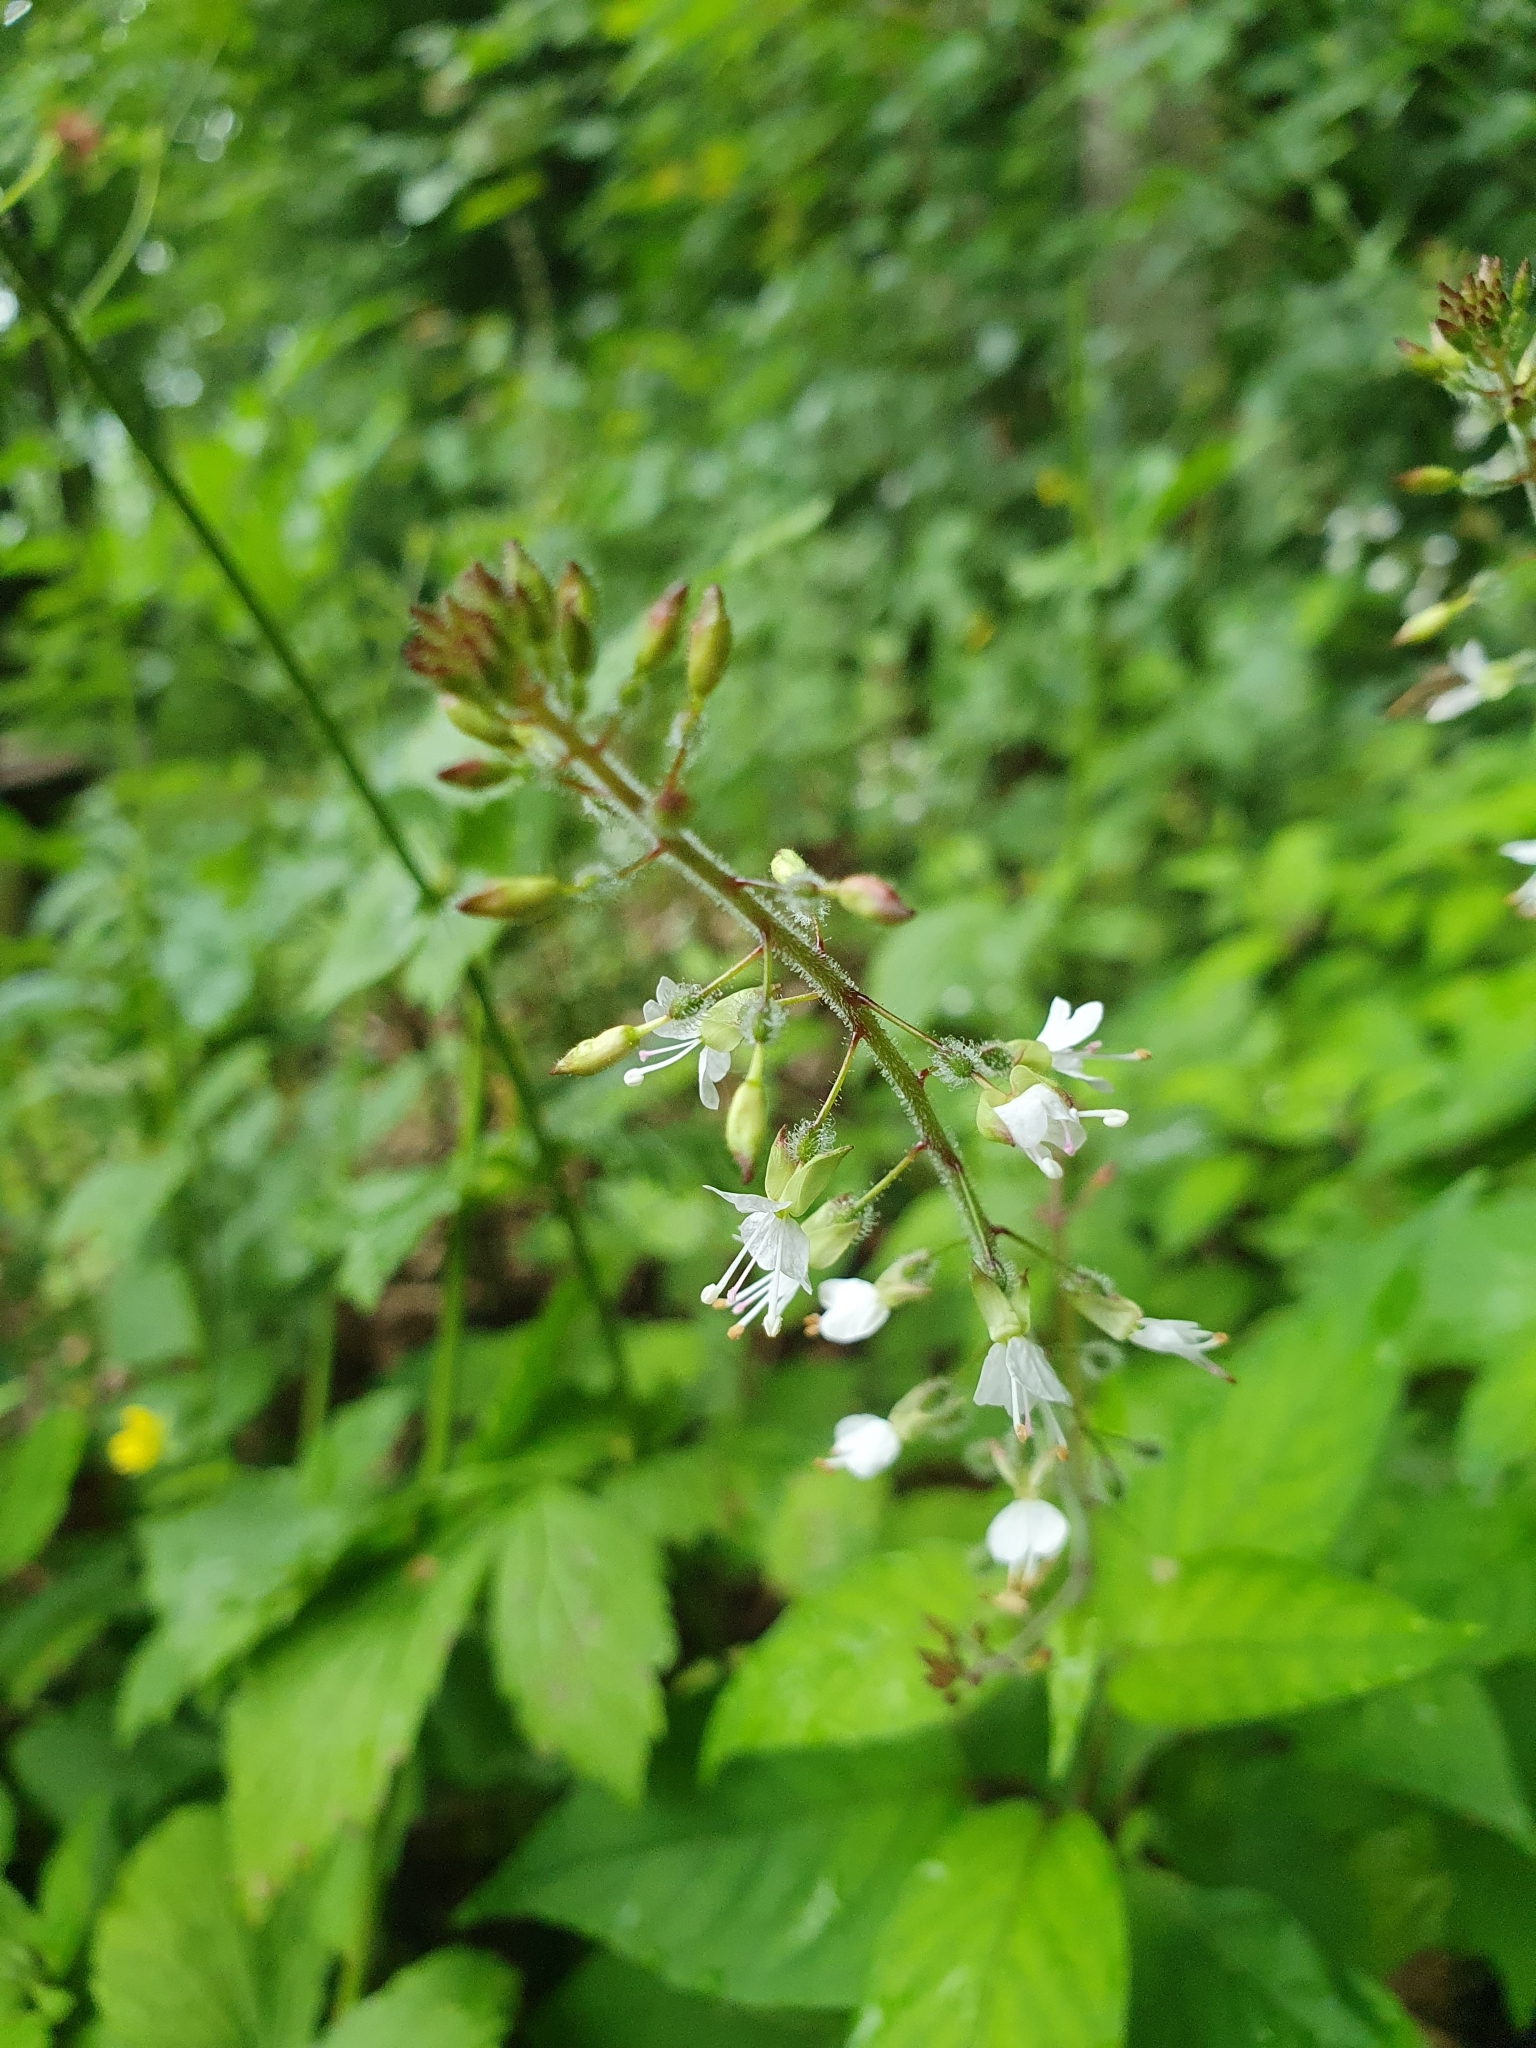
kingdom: Plantae
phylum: Tracheophyta
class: Magnoliopsida
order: Myrtales
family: Onagraceae
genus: Circaea
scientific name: Circaea lutetiana
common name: Enchanter's-nightshade
